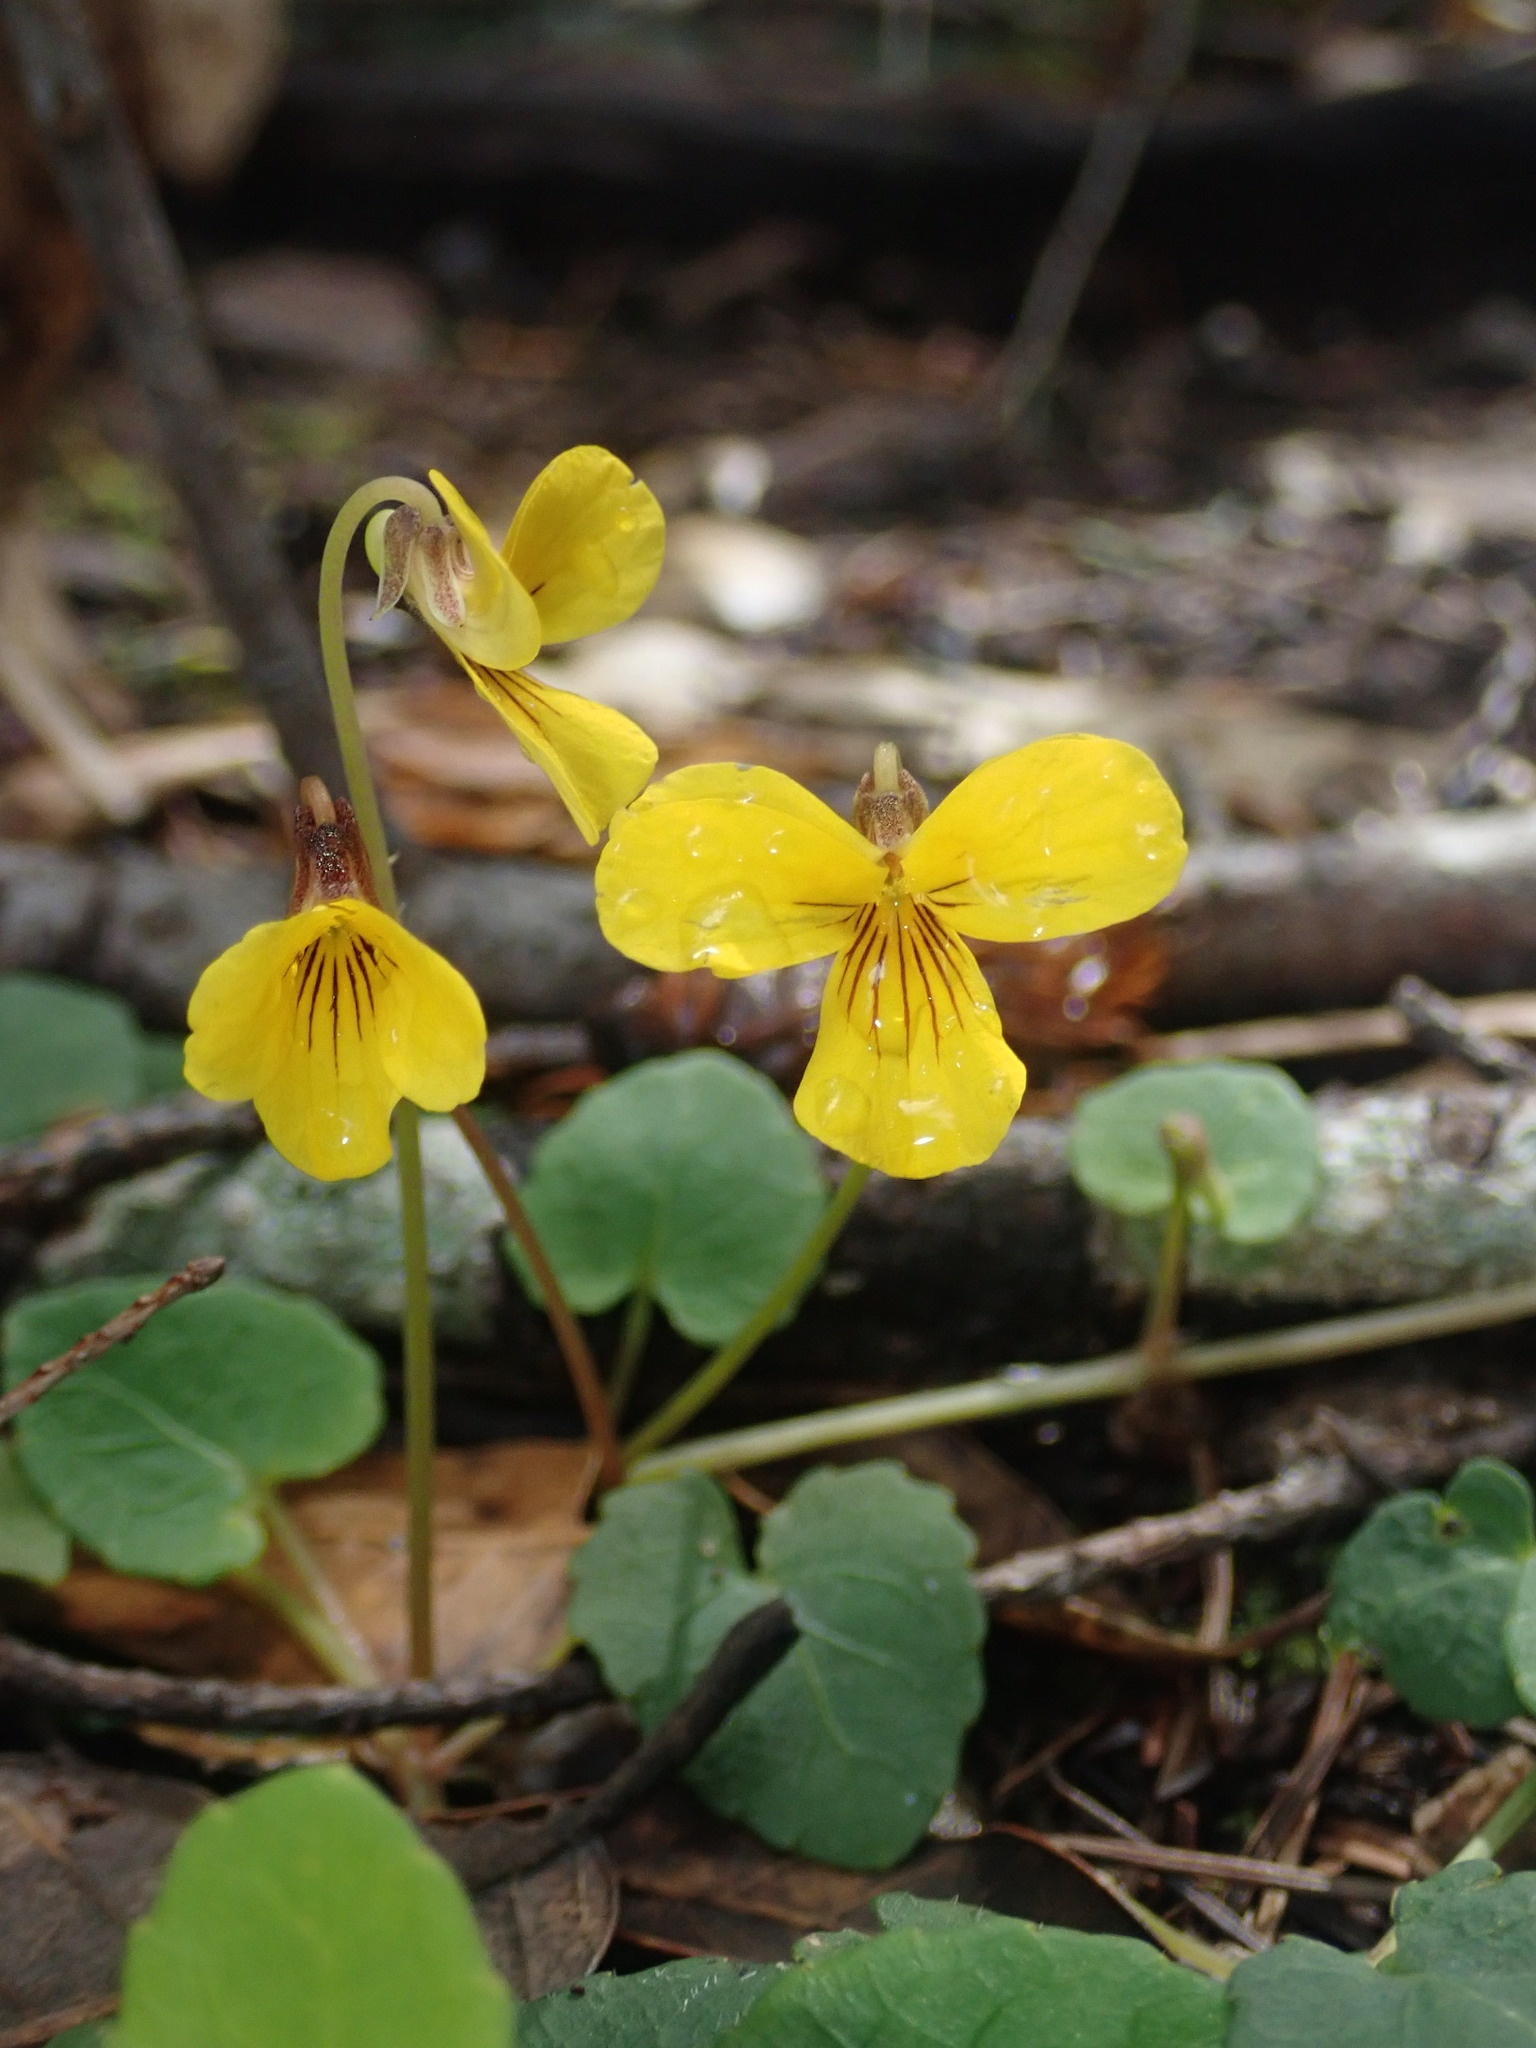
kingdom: Plantae
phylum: Tracheophyta
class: Magnoliopsida
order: Malpighiales
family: Violaceae
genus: Viola
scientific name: Viola sempervirens
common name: Evergreen violet
